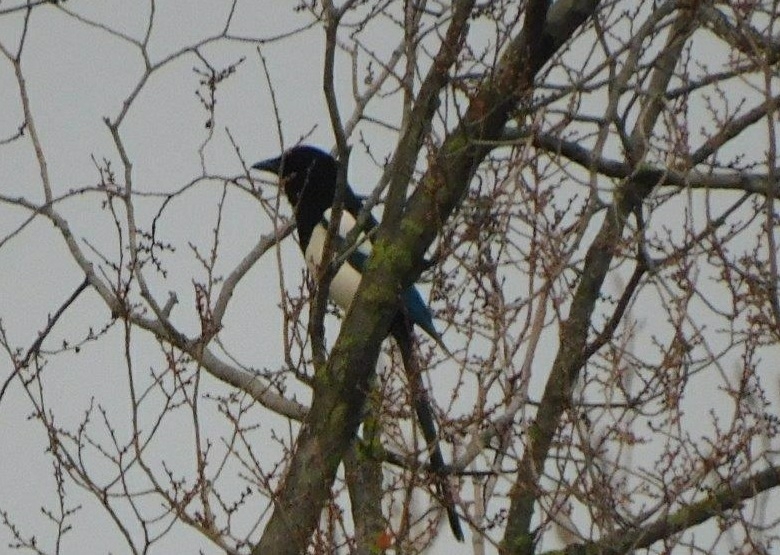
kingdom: Animalia
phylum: Chordata
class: Aves
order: Passeriformes
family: Corvidae
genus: Pica
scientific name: Pica pica
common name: Eurasian magpie
